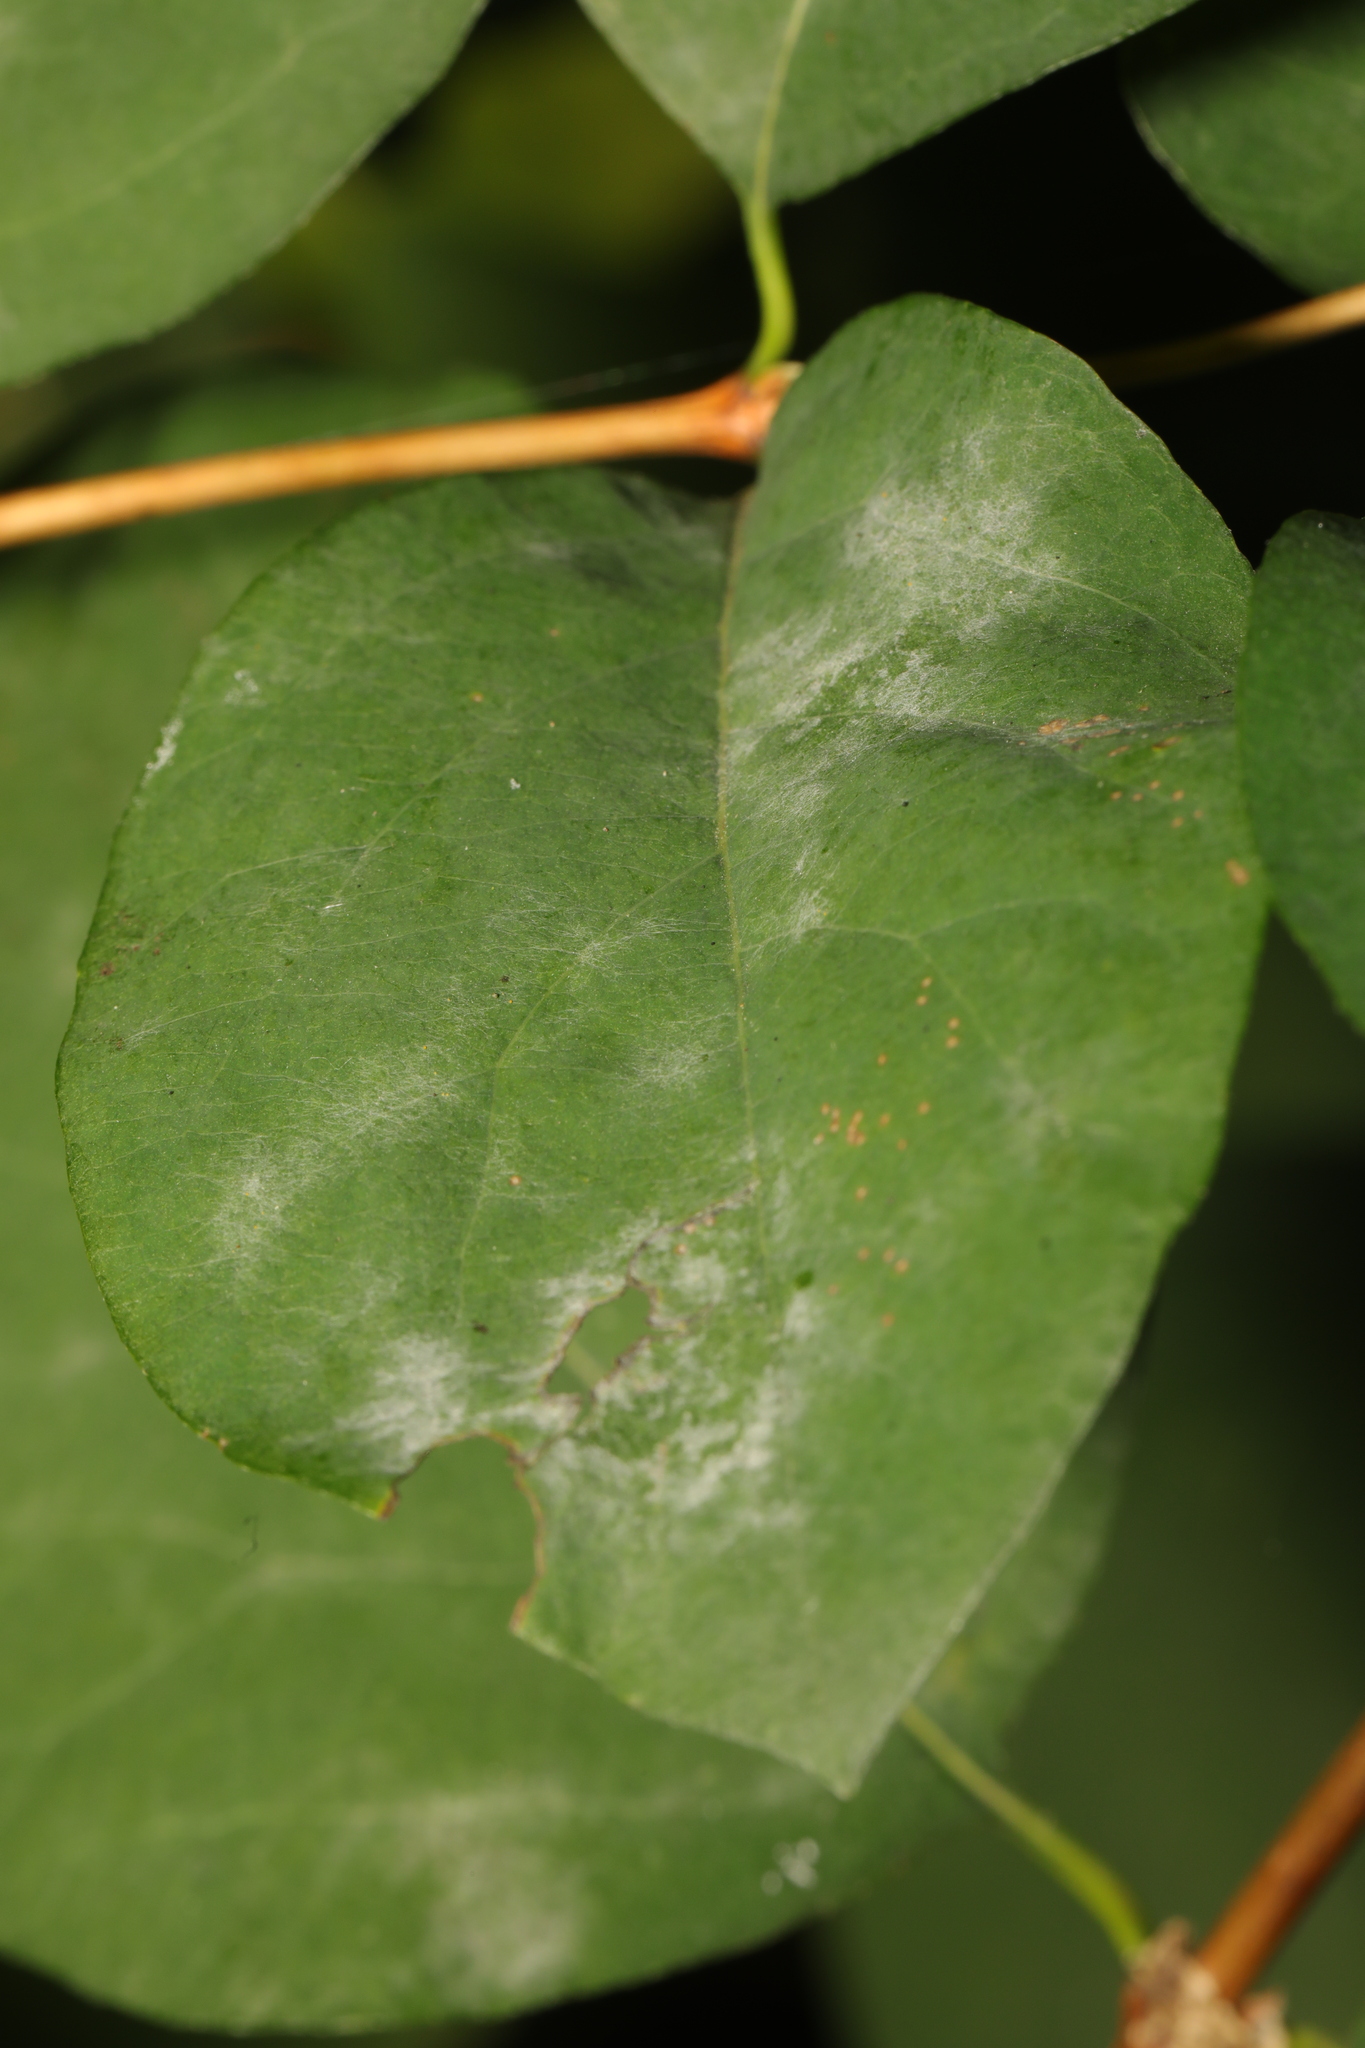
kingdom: Fungi
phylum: Ascomycota
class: Leotiomycetes
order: Helotiales
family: Erysiphaceae
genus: Erysiphe
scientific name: Erysiphe symphoricarpi
